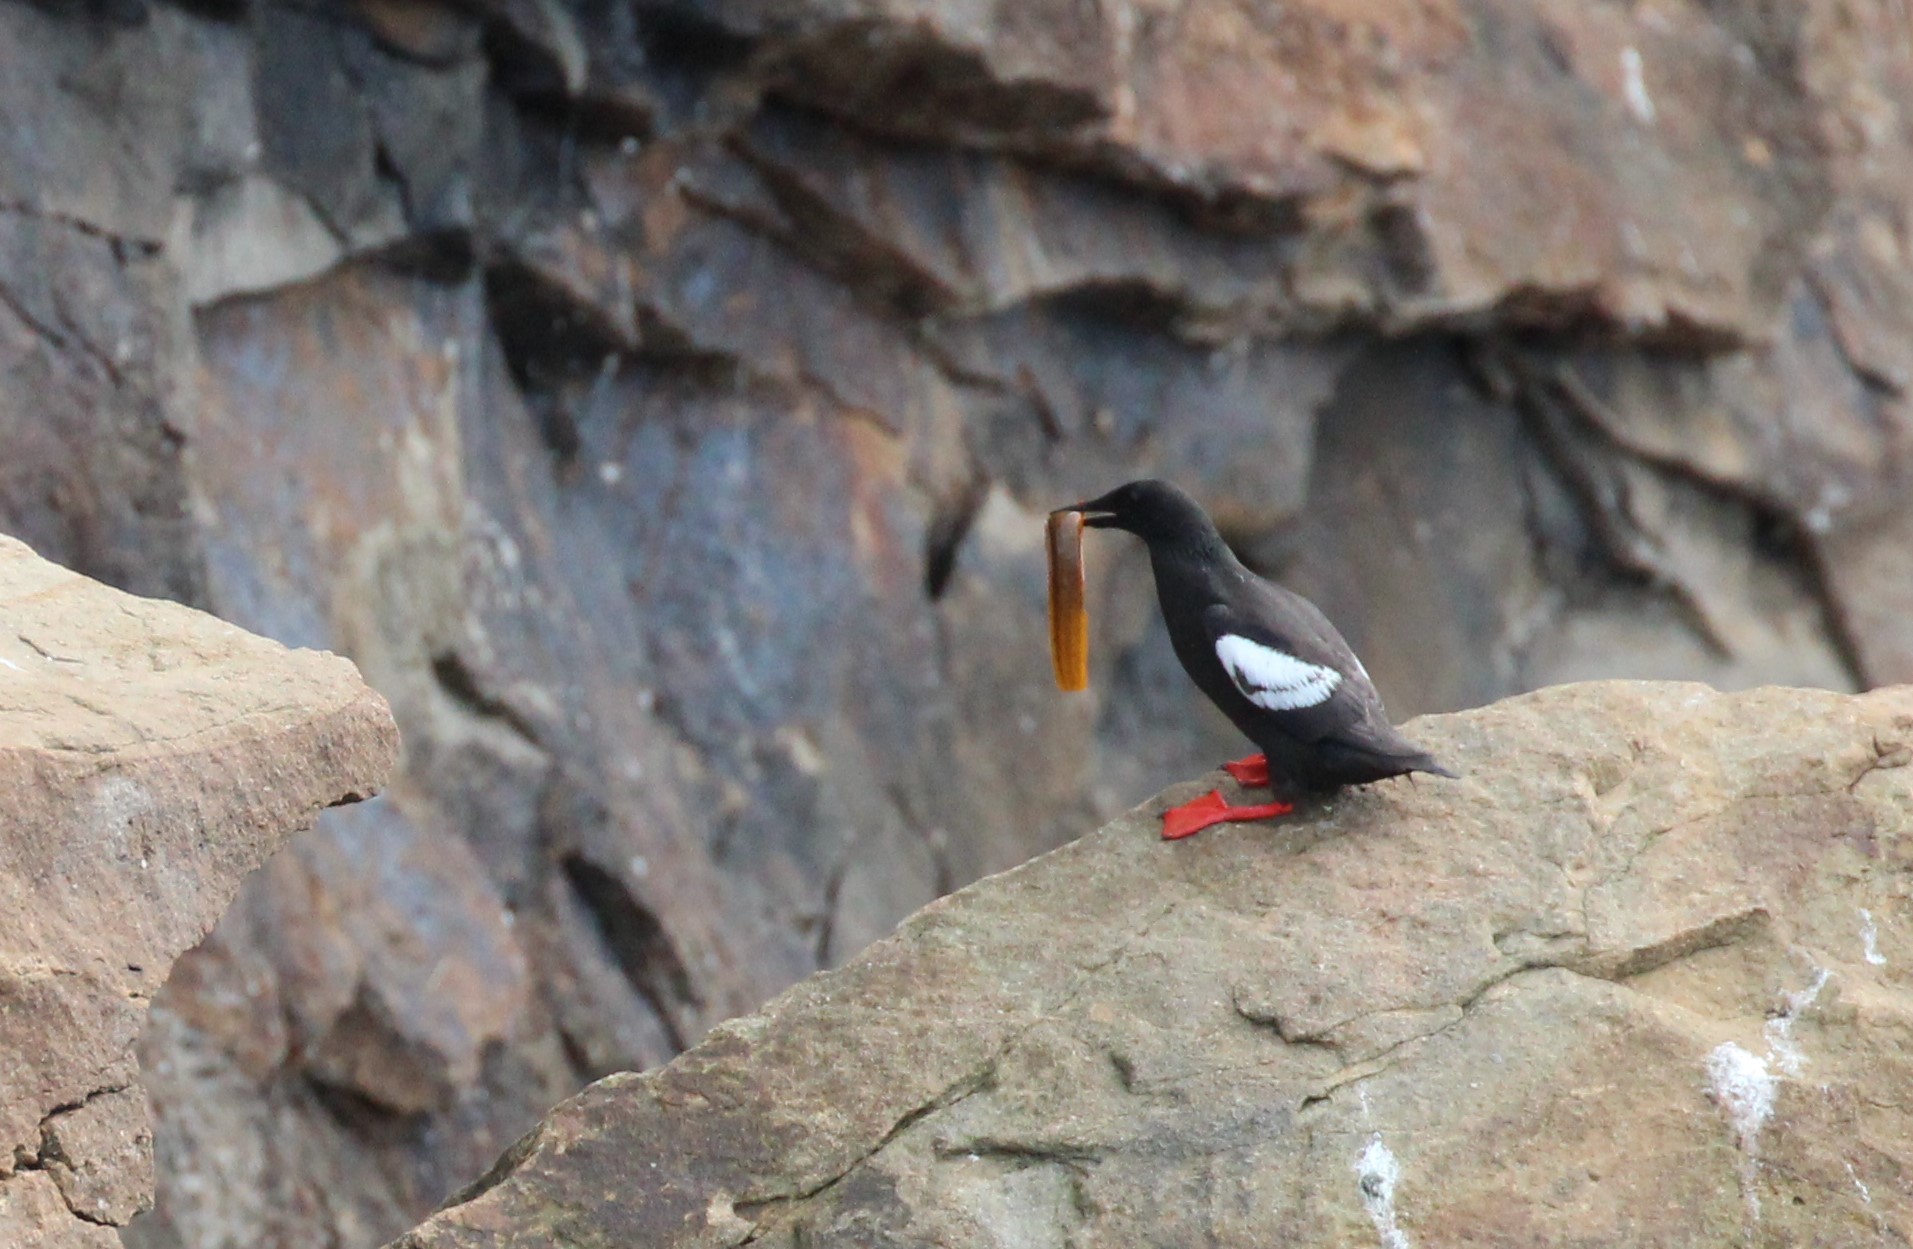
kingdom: Animalia
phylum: Chordata
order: Perciformes
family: Pholidae
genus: Pholis
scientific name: Pholis gunnellus
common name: Butterfish
